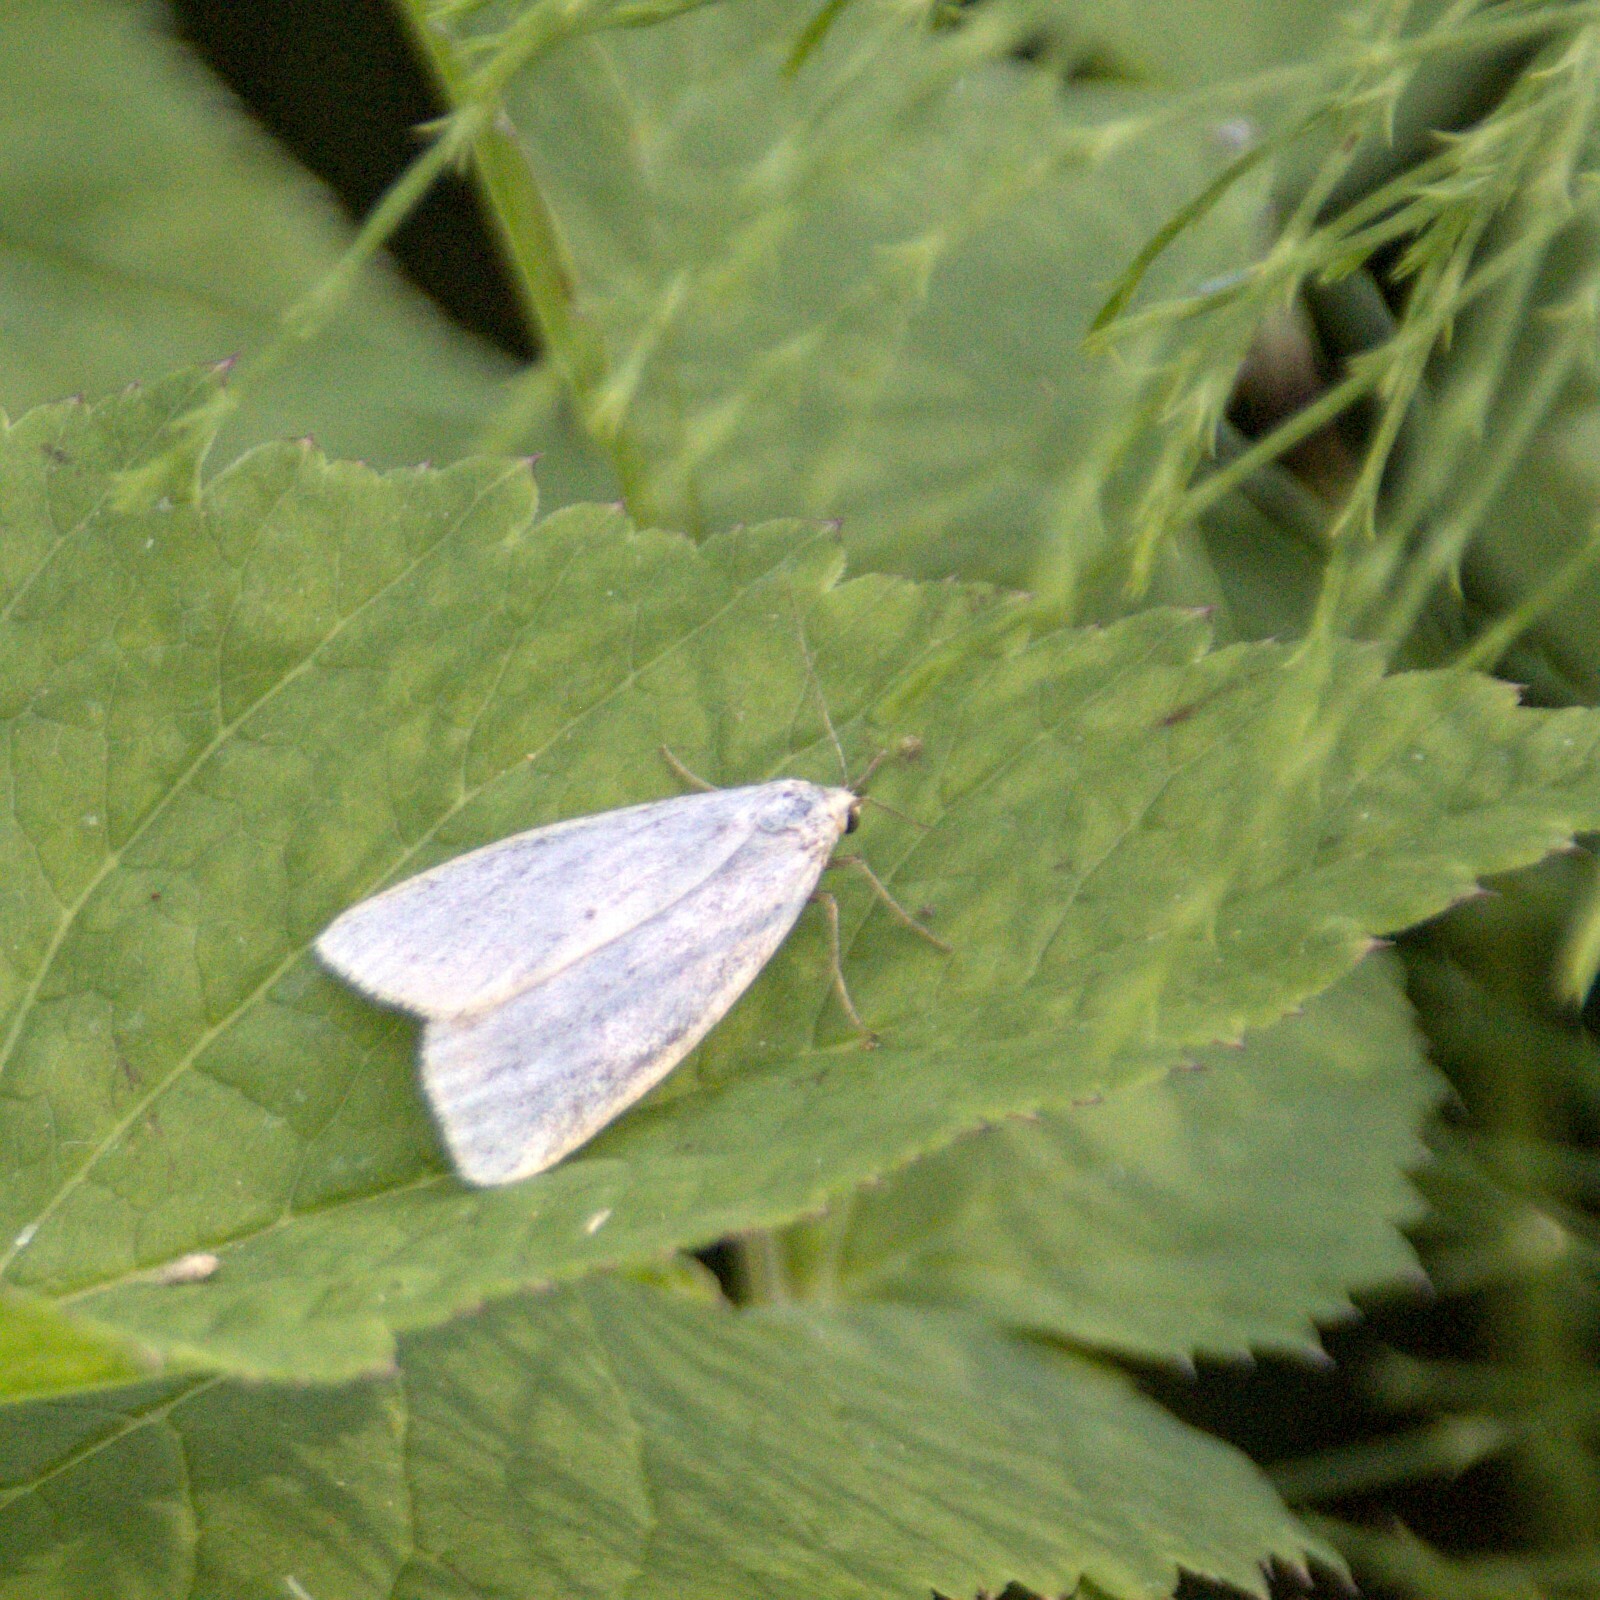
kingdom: Animalia
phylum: Arthropoda
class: Insecta
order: Lepidoptera
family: Erebidae
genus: Cybosia
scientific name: Cybosia mesomella
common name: Four-dotted footman
